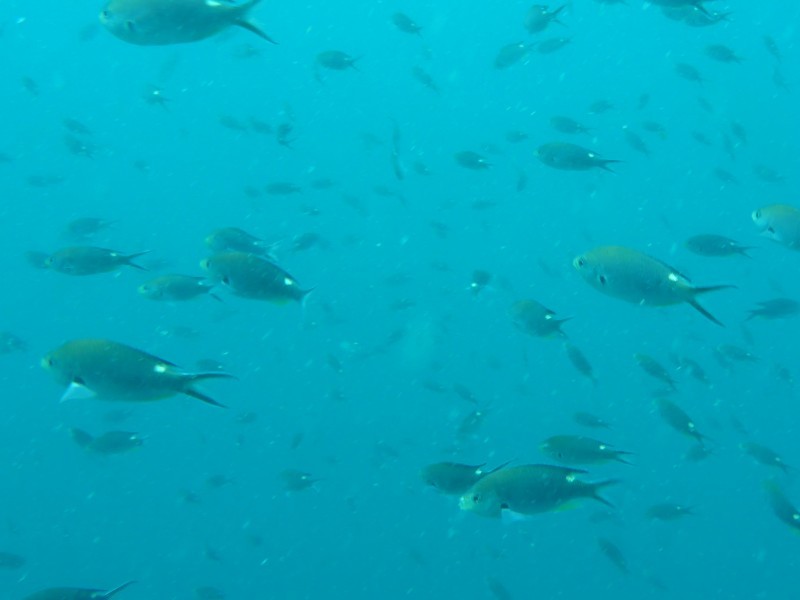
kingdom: Animalia
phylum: Chordata
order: Perciformes
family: Pomacentridae
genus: Chromis
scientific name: Chromis atrilobata
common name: Scissortail damselfish
